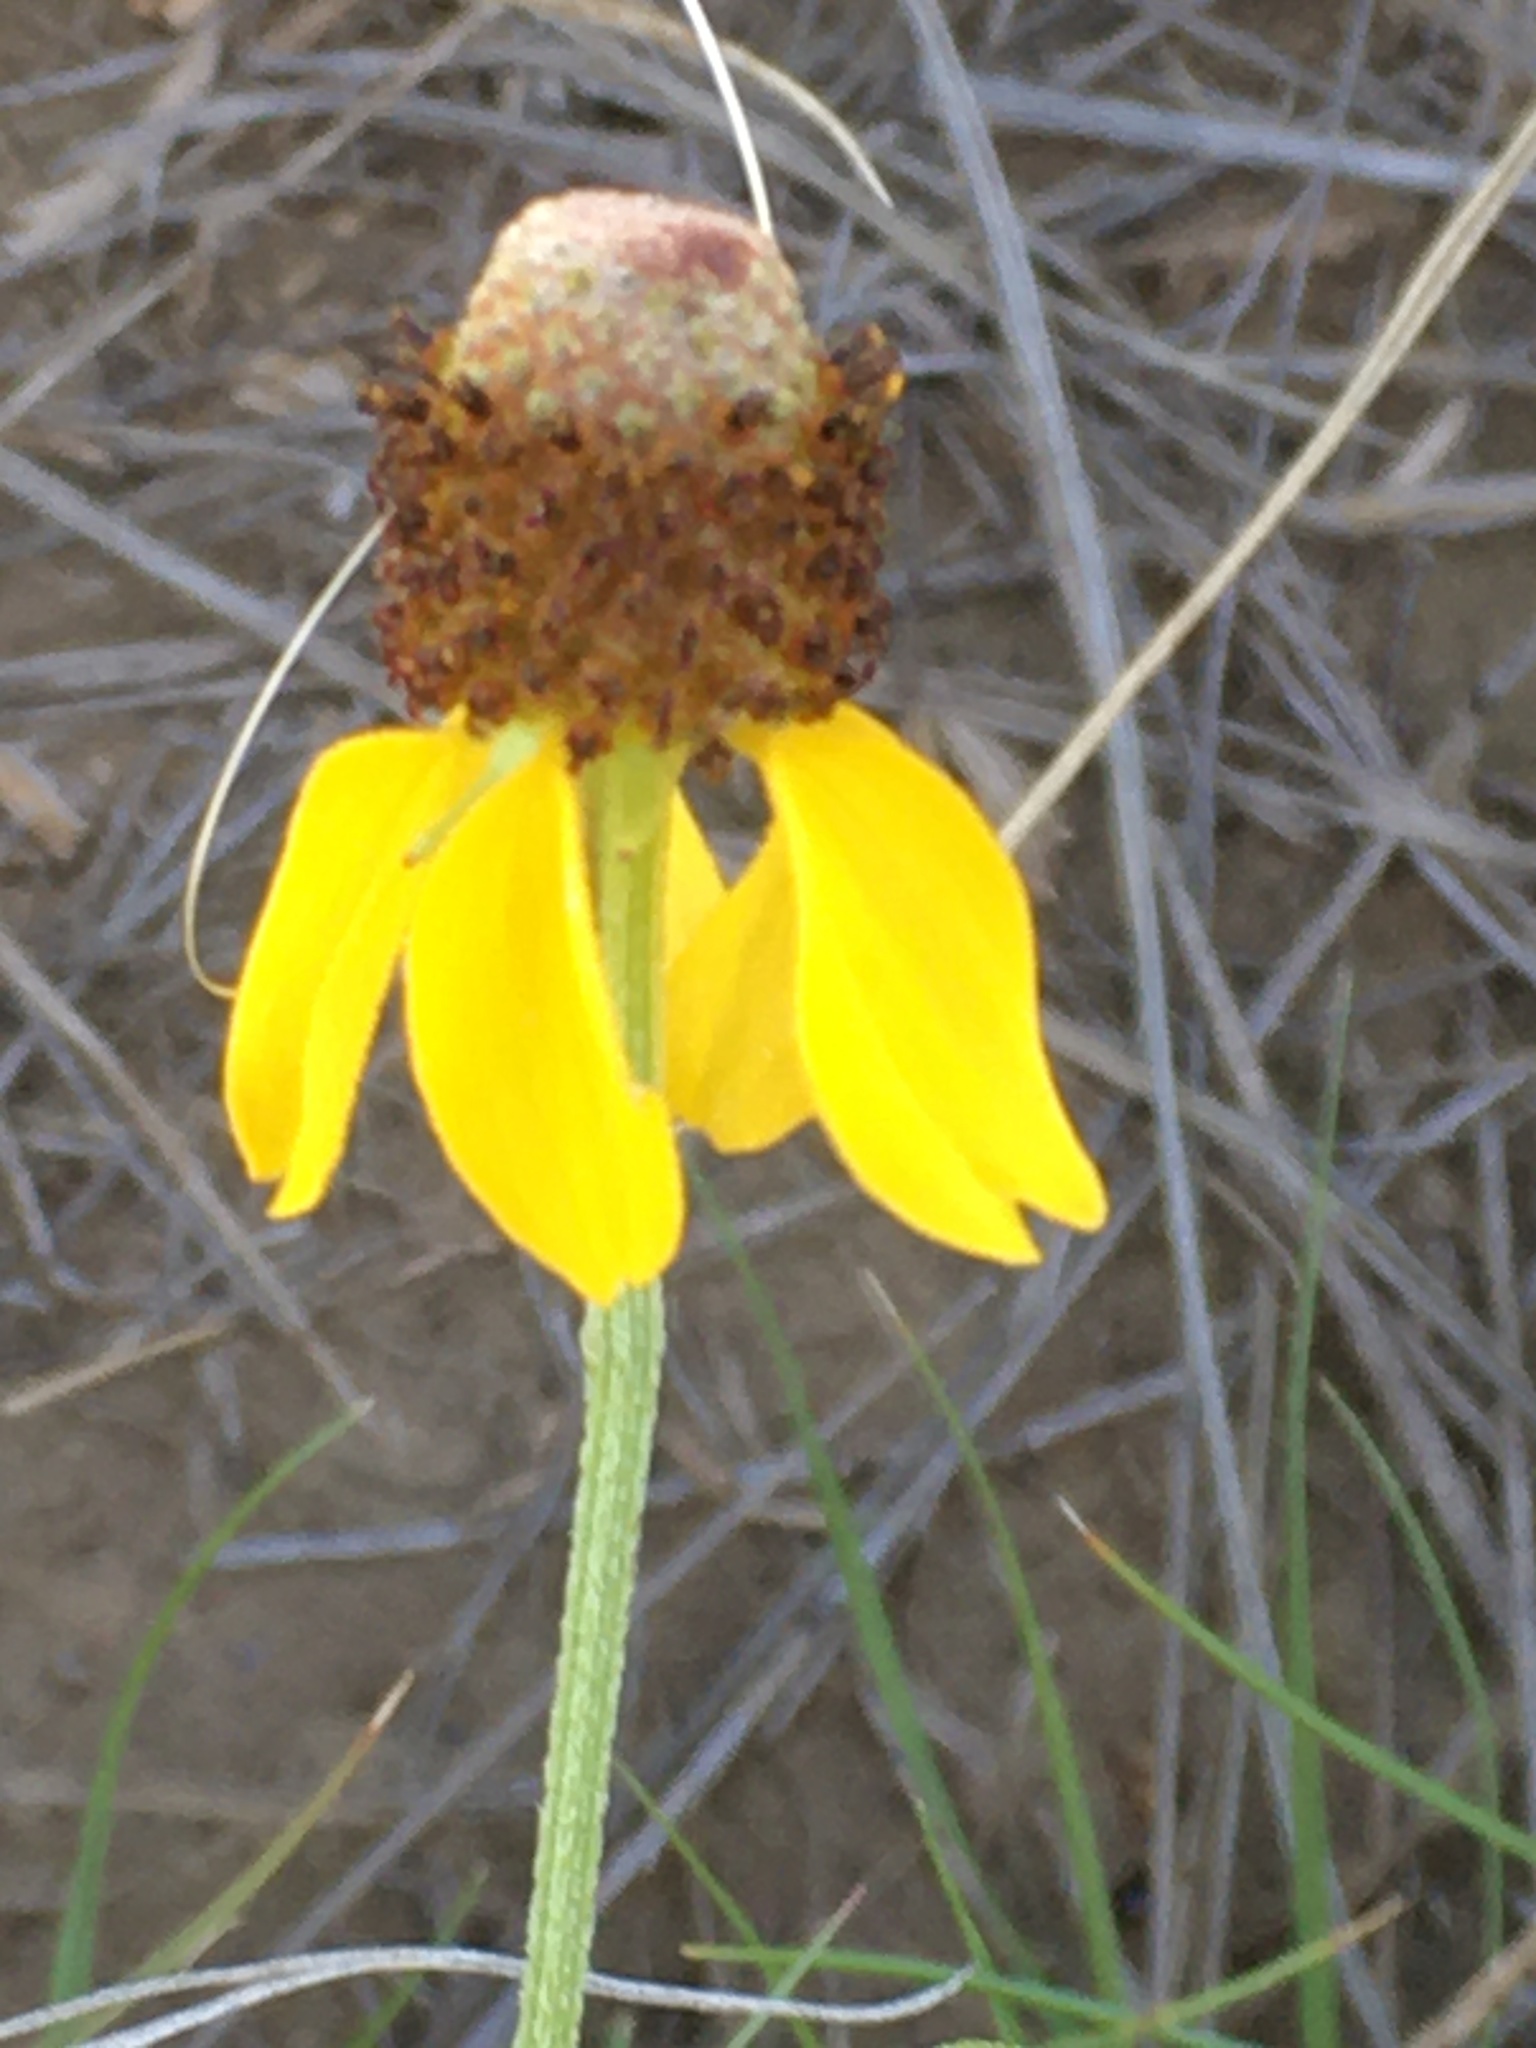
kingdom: Plantae
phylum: Tracheophyta
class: Magnoliopsida
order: Asterales
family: Asteraceae
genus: Ratibida
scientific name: Ratibida columnifera
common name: Prairie coneflower
